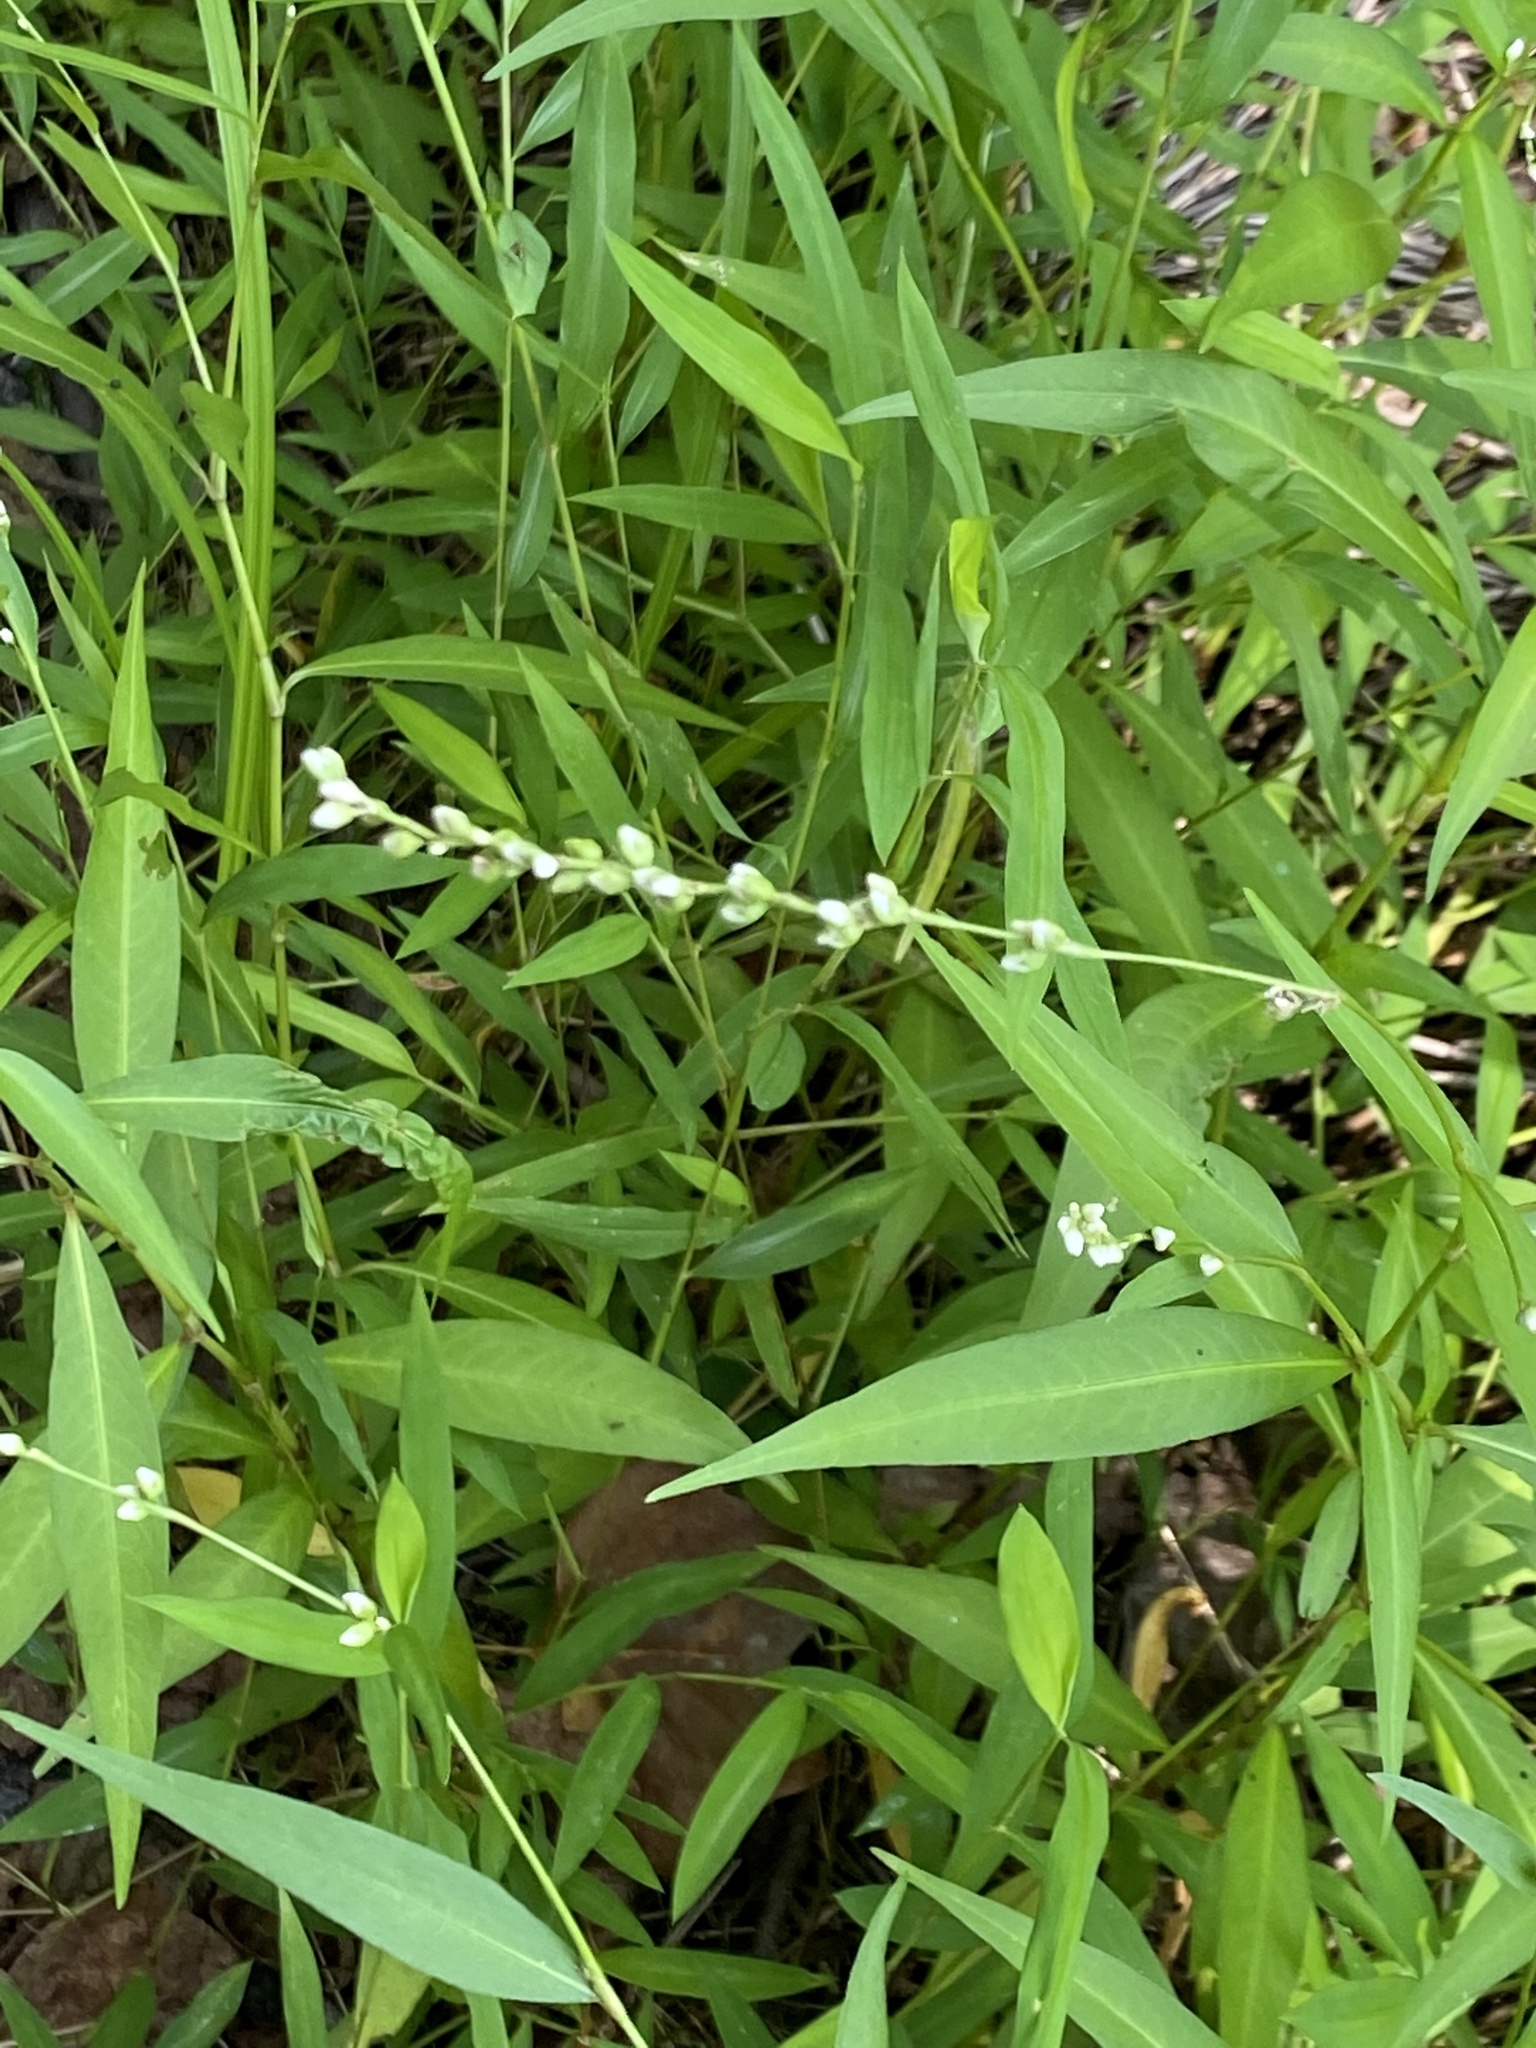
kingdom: Plantae
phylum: Tracheophyta
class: Magnoliopsida
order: Caryophyllales
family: Polygonaceae
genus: Persicaria
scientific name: Persicaria punctata
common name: Dotted smartweed
